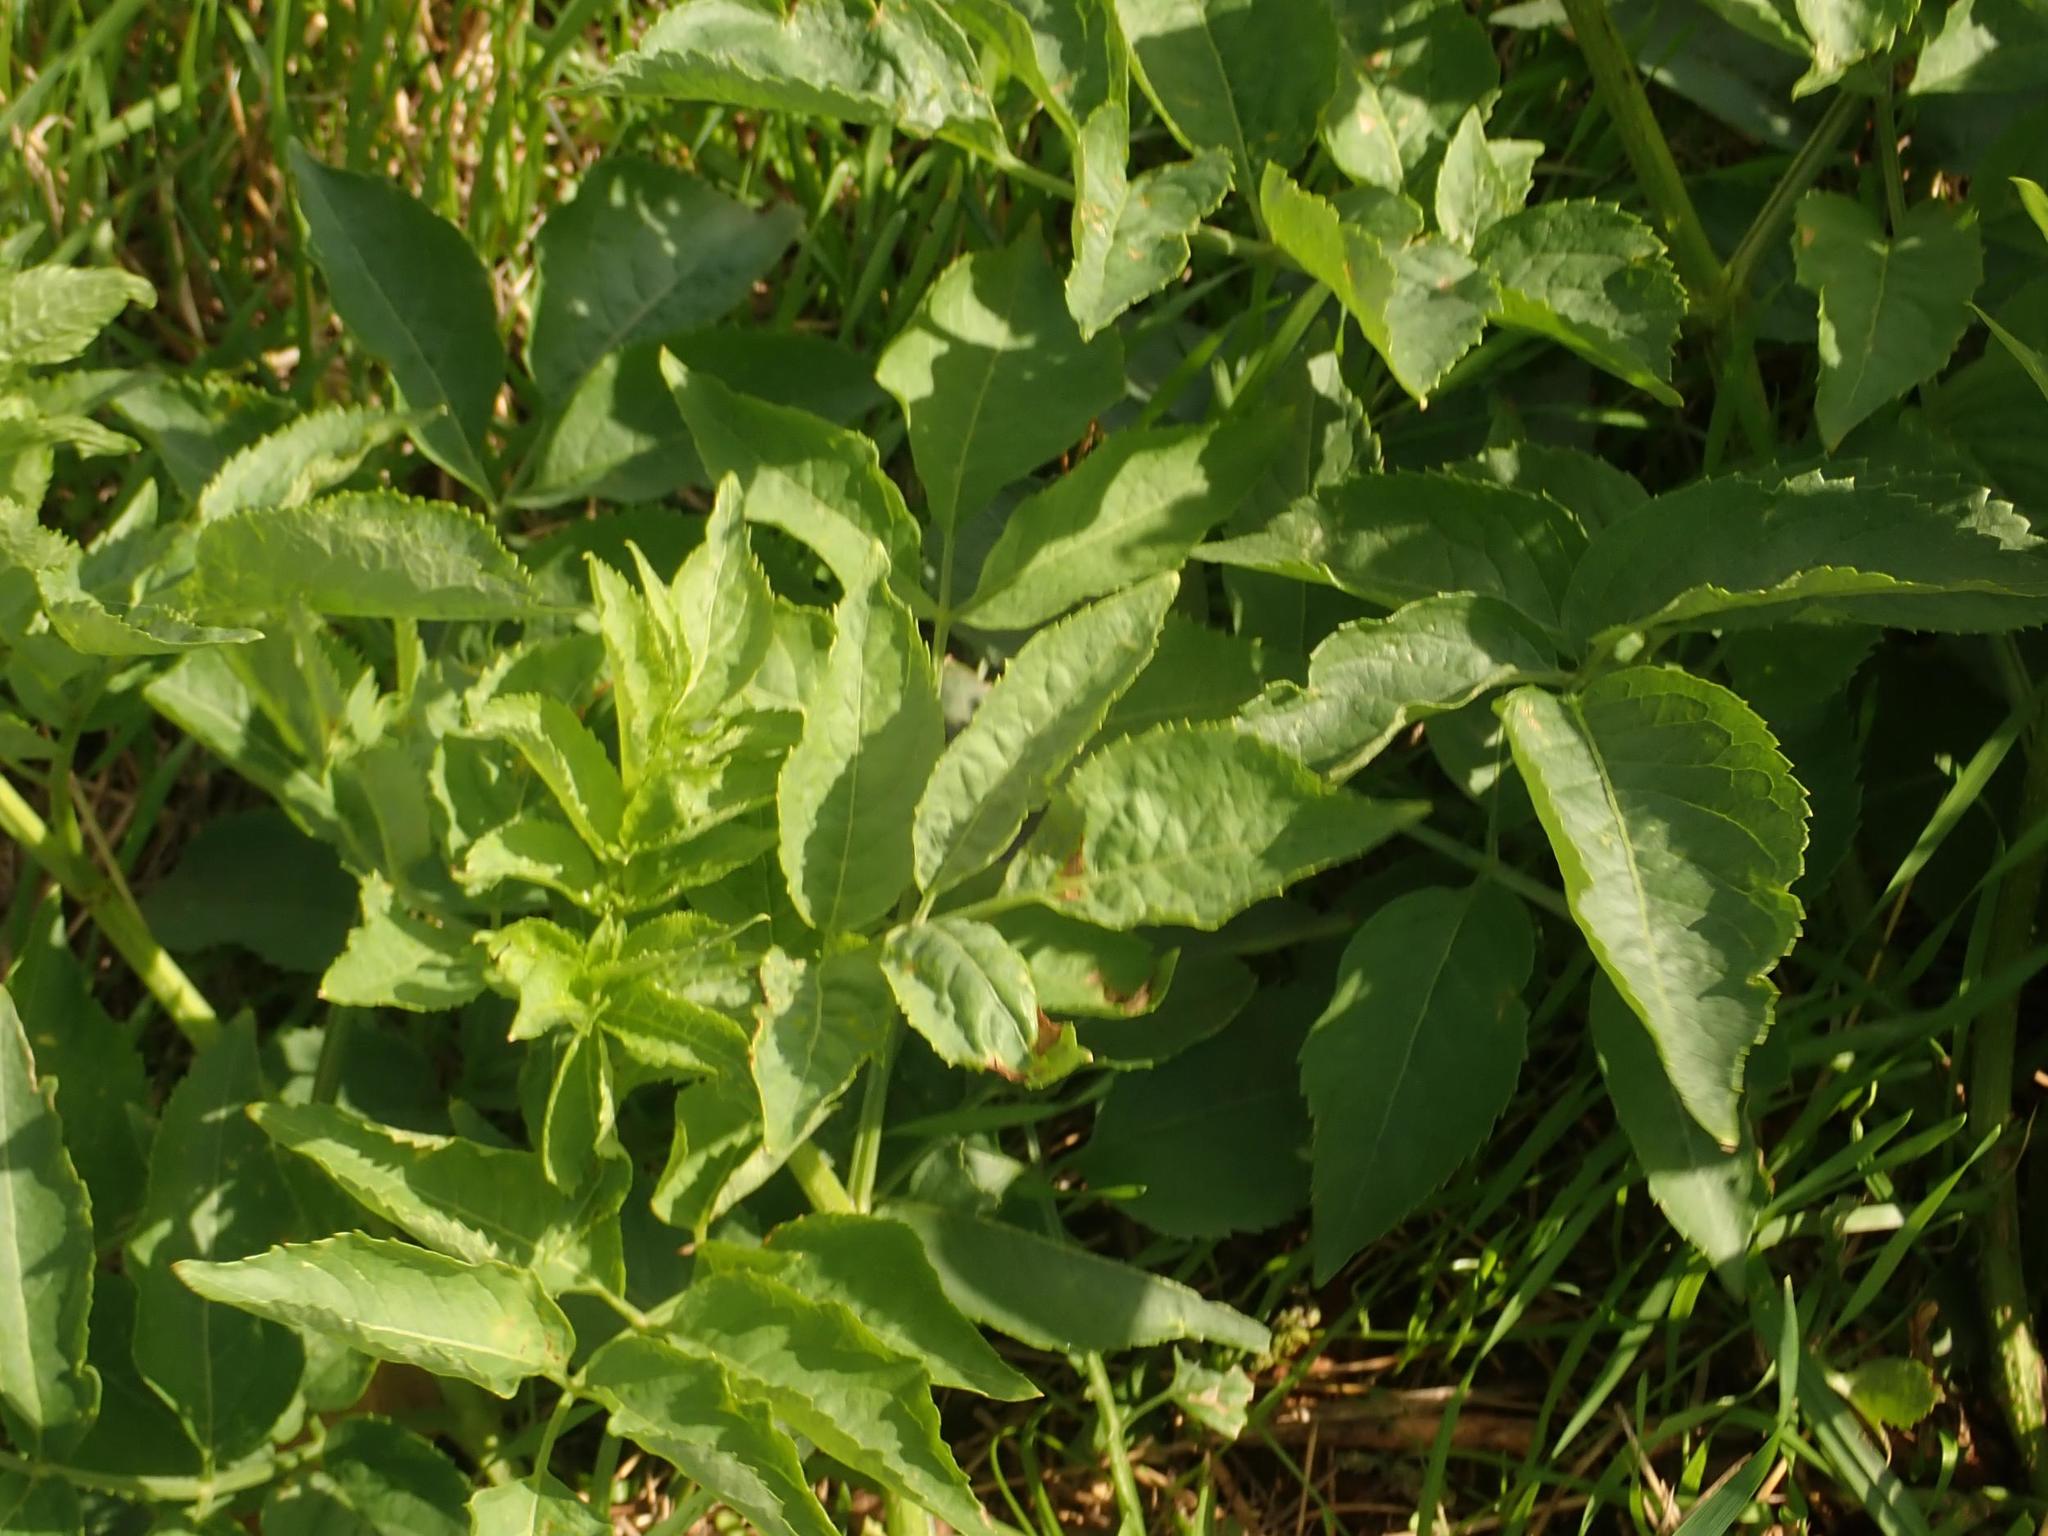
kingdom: Plantae
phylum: Tracheophyta
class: Magnoliopsida
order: Dipsacales
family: Viburnaceae
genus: Sambucus
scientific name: Sambucus nigra
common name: Elder
